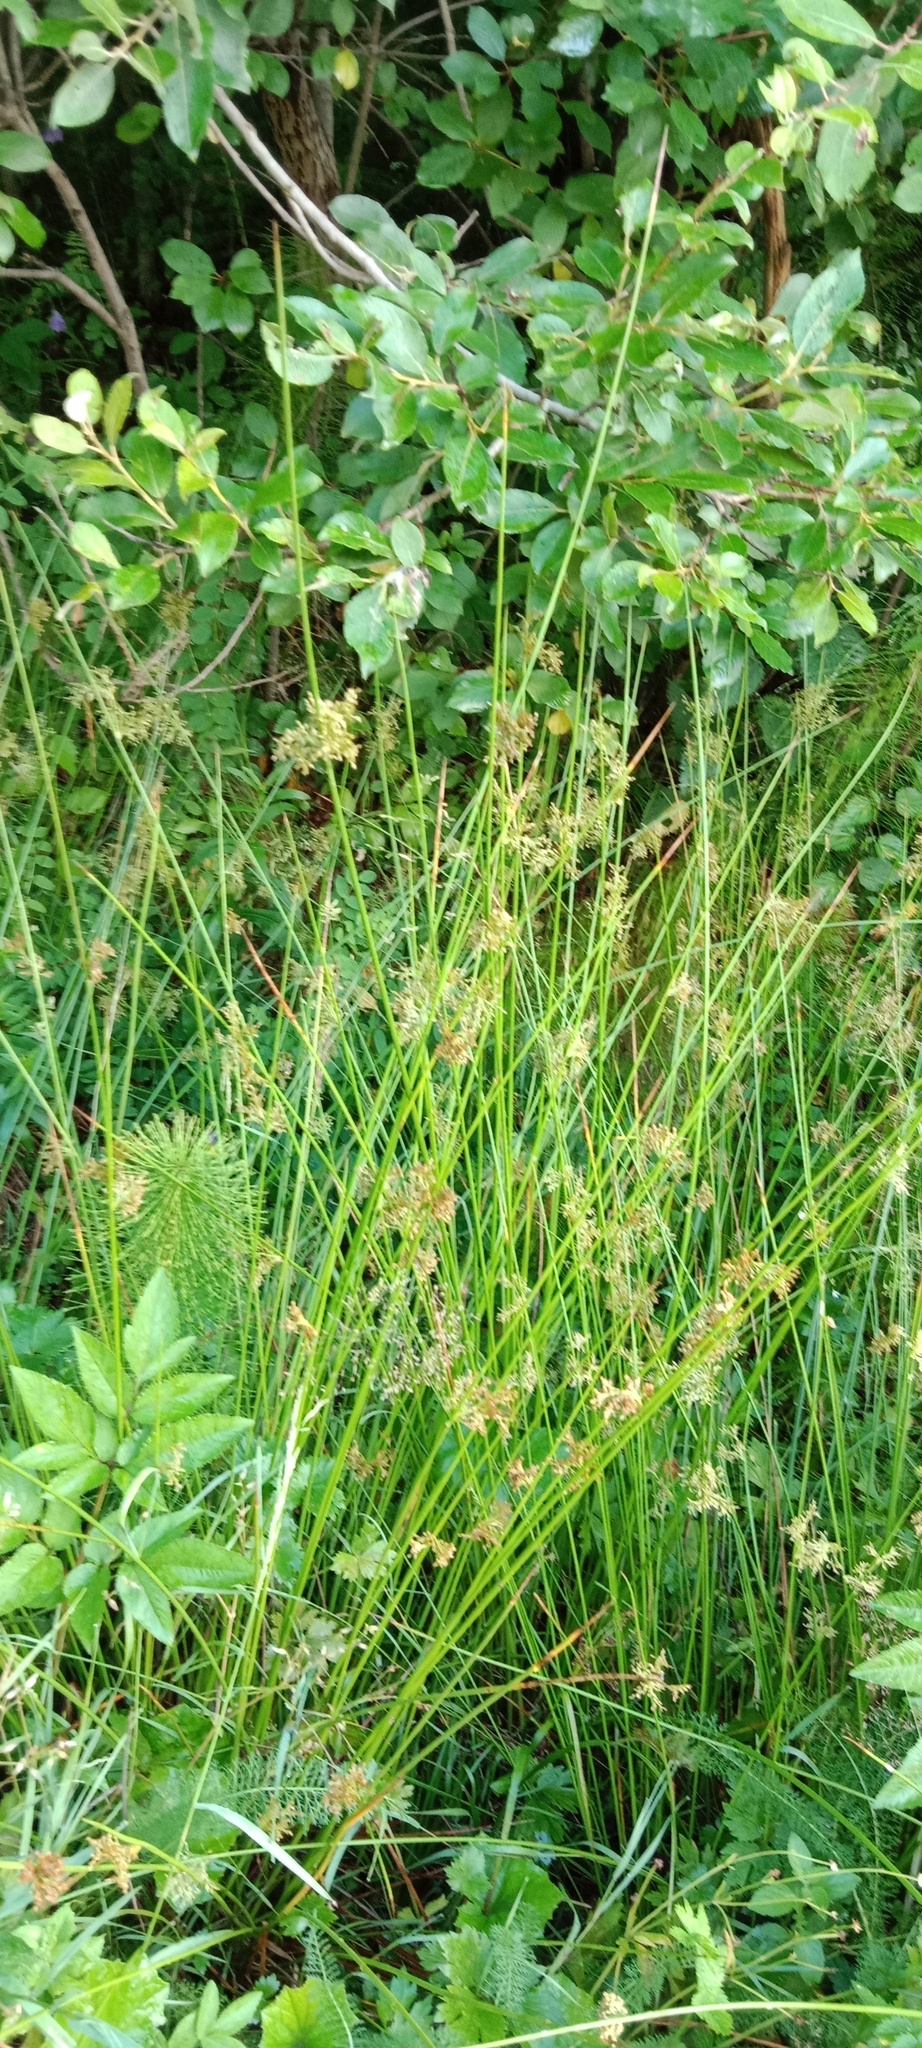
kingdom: Plantae
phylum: Tracheophyta
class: Liliopsida
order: Poales
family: Juncaceae
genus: Juncus
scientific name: Juncus effusus
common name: Soft rush
